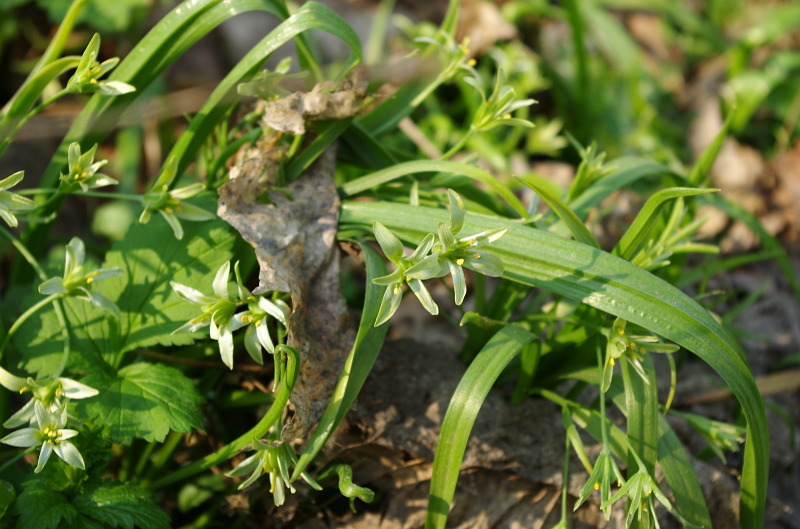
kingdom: Plantae
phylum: Tracheophyta
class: Liliopsida
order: Liliales
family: Liliaceae
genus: Gagea
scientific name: Gagea lutea
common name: Yellow star-of-bethlehem
